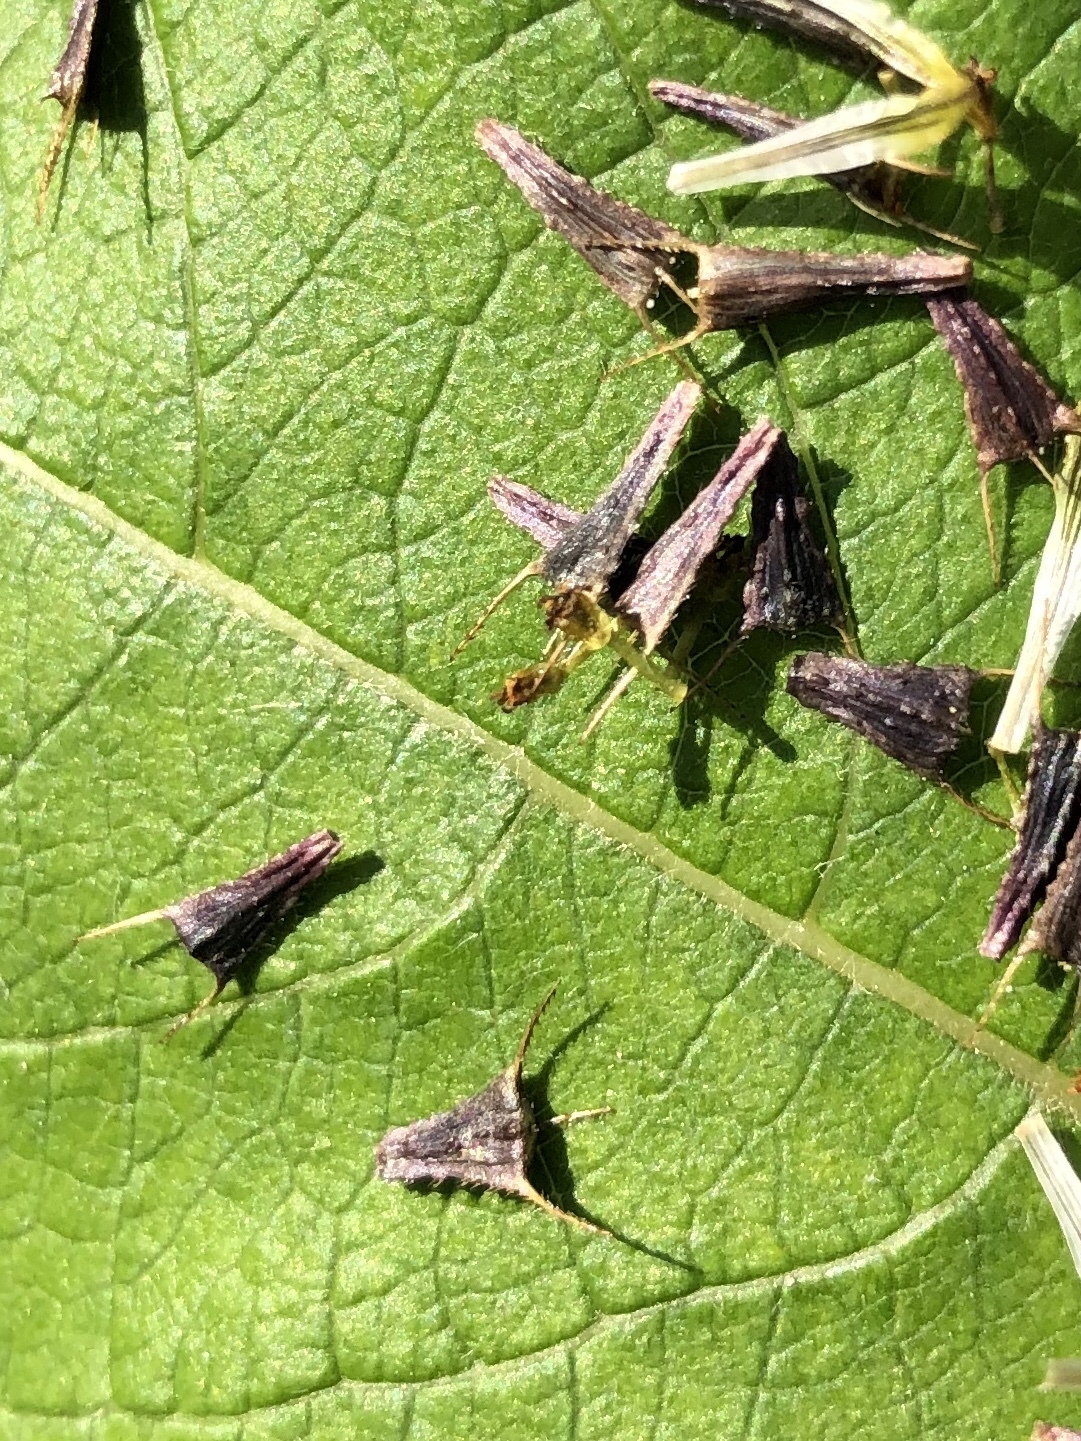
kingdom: Plantae
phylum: Tracheophyta
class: Magnoliopsida
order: Asterales
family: Asteraceae
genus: Bidens
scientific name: Bidens cernua
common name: Nodding bur-marigold
